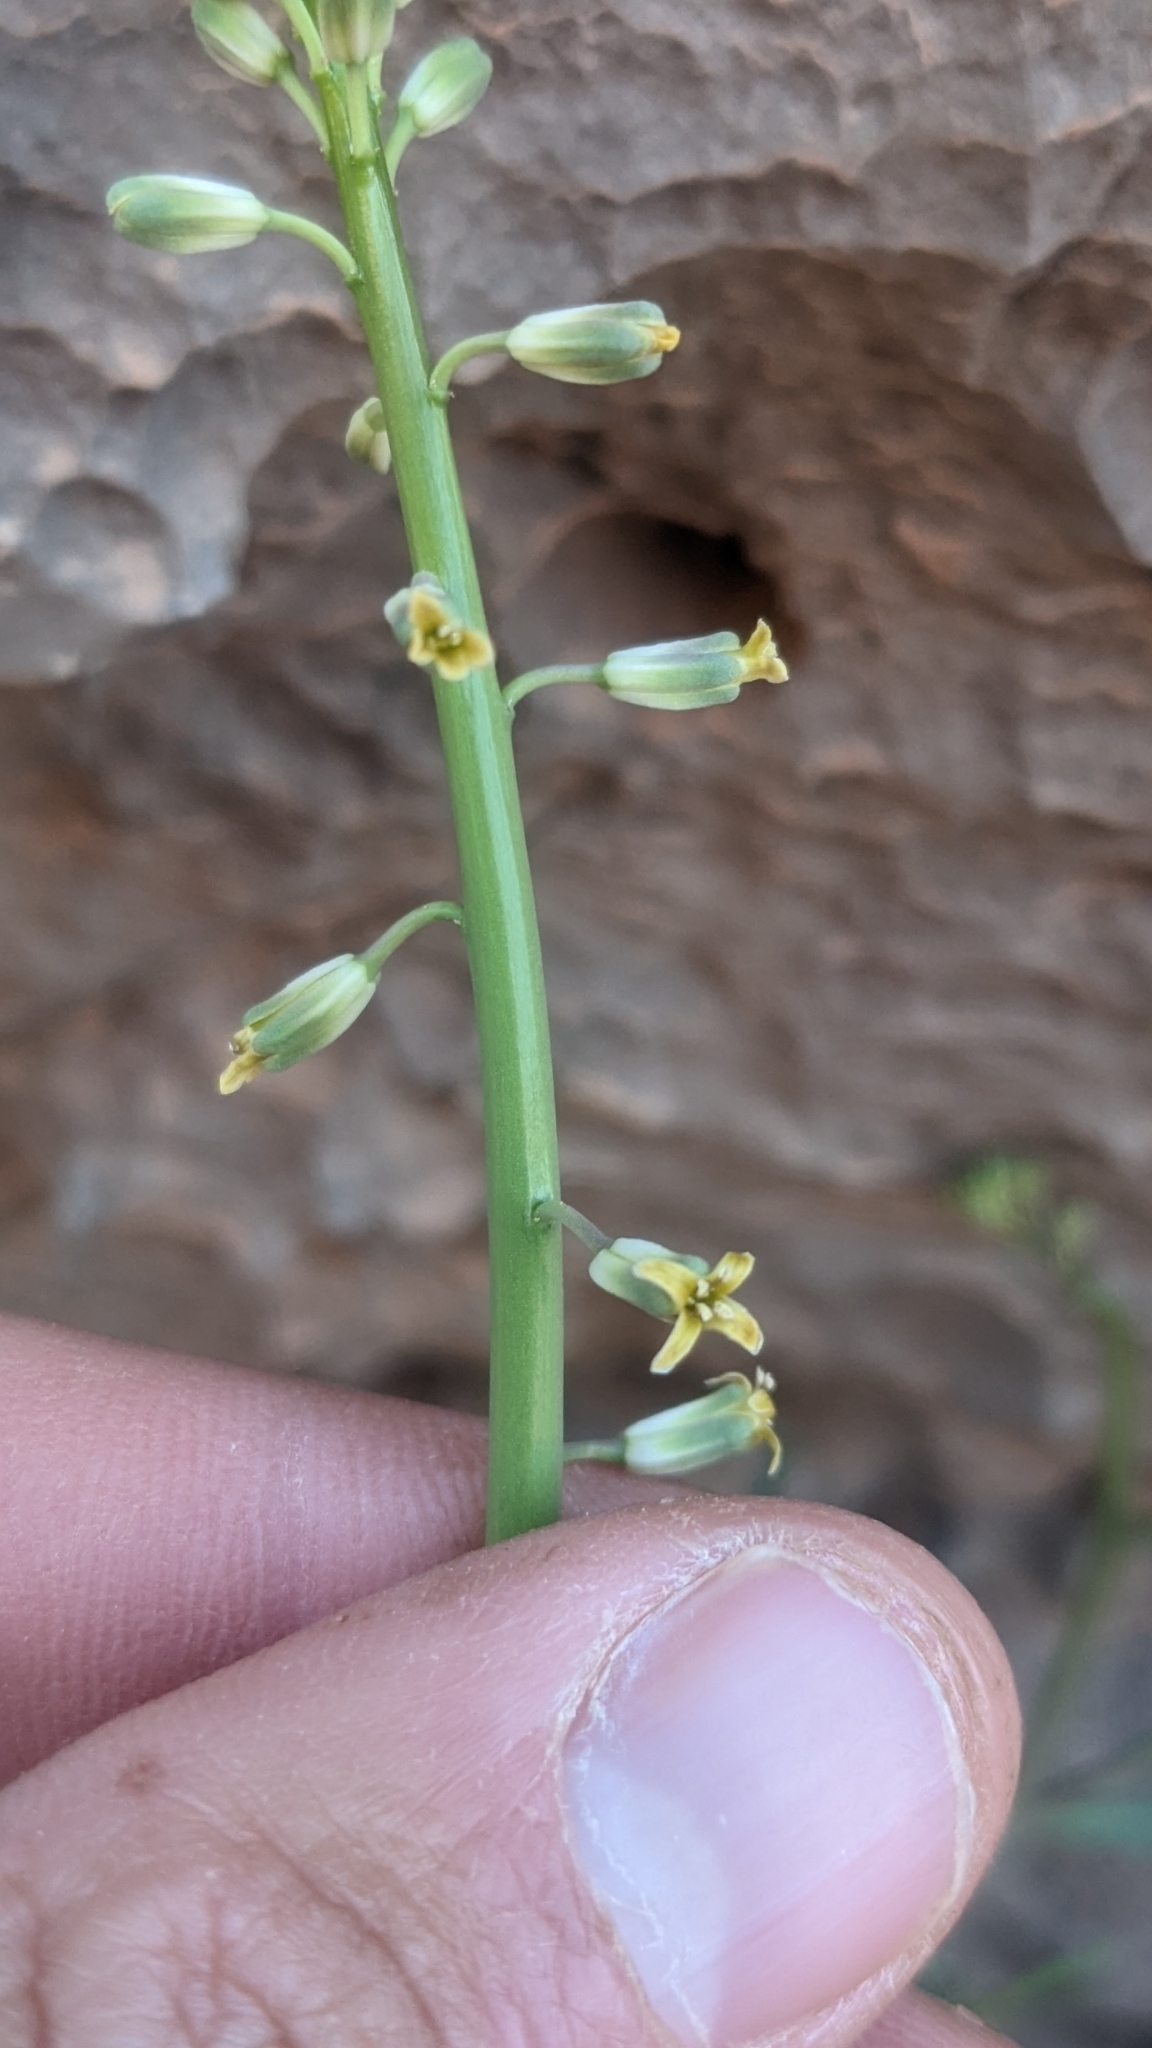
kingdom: Plantae
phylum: Tracheophyta
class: Magnoliopsida
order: Brassicales
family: Brassicaceae
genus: Streptanthus
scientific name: Streptanthus longirostris
